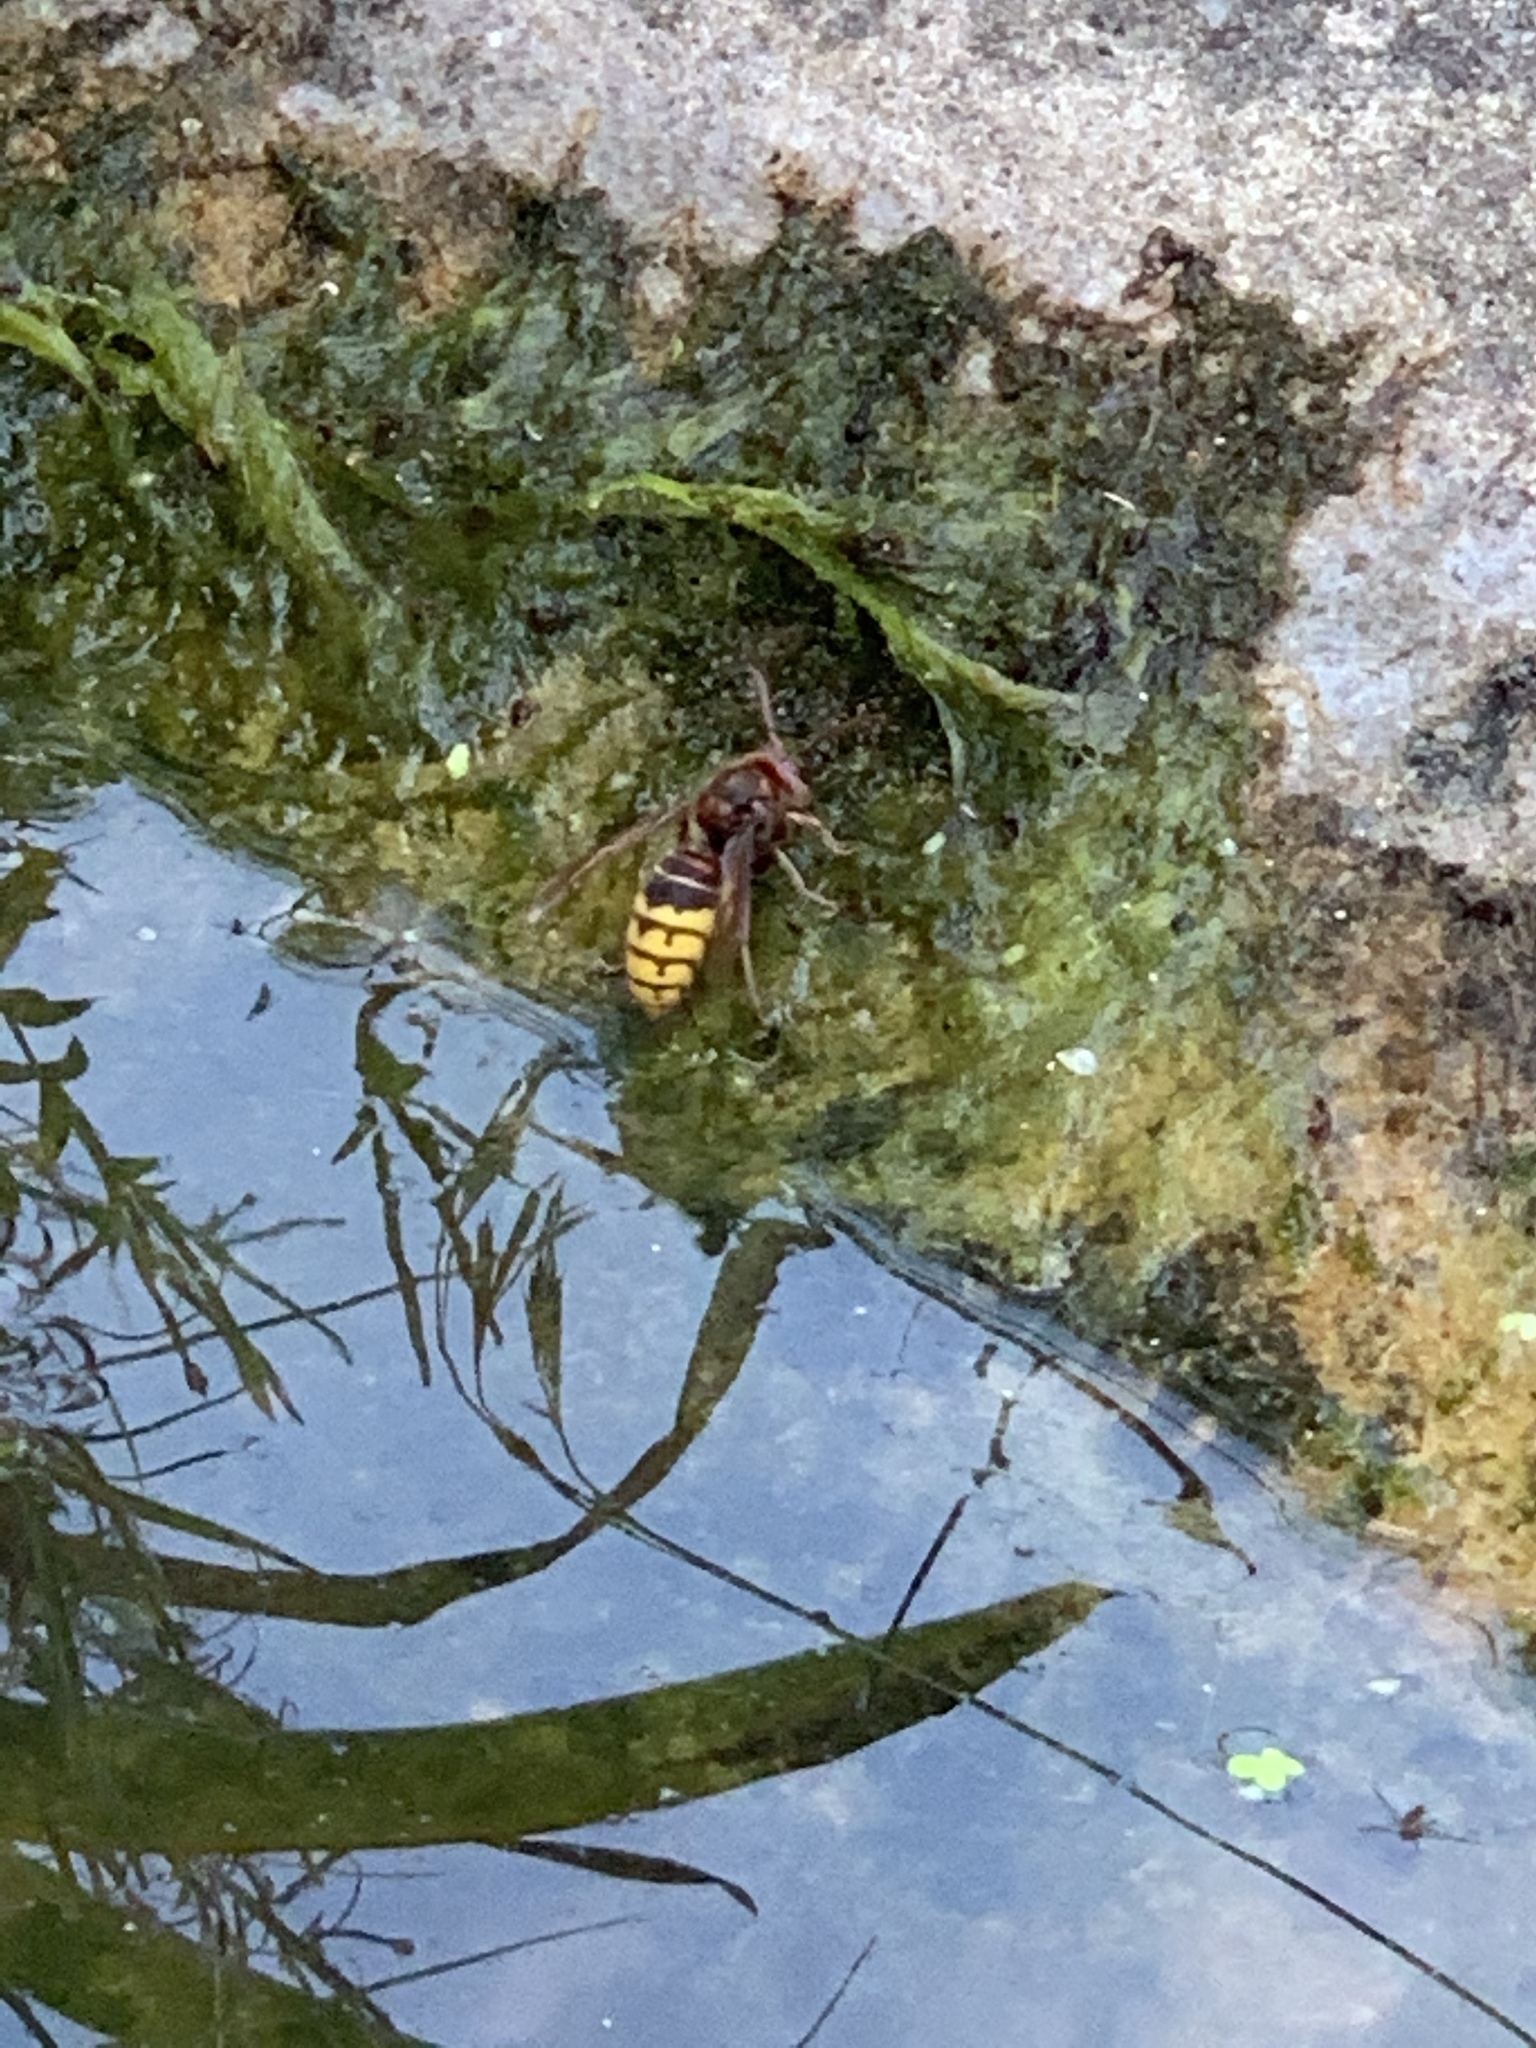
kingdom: Animalia
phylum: Arthropoda
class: Insecta
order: Hymenoptera
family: Vespidae
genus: Vespa
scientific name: Vespa crabro
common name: Hornet
